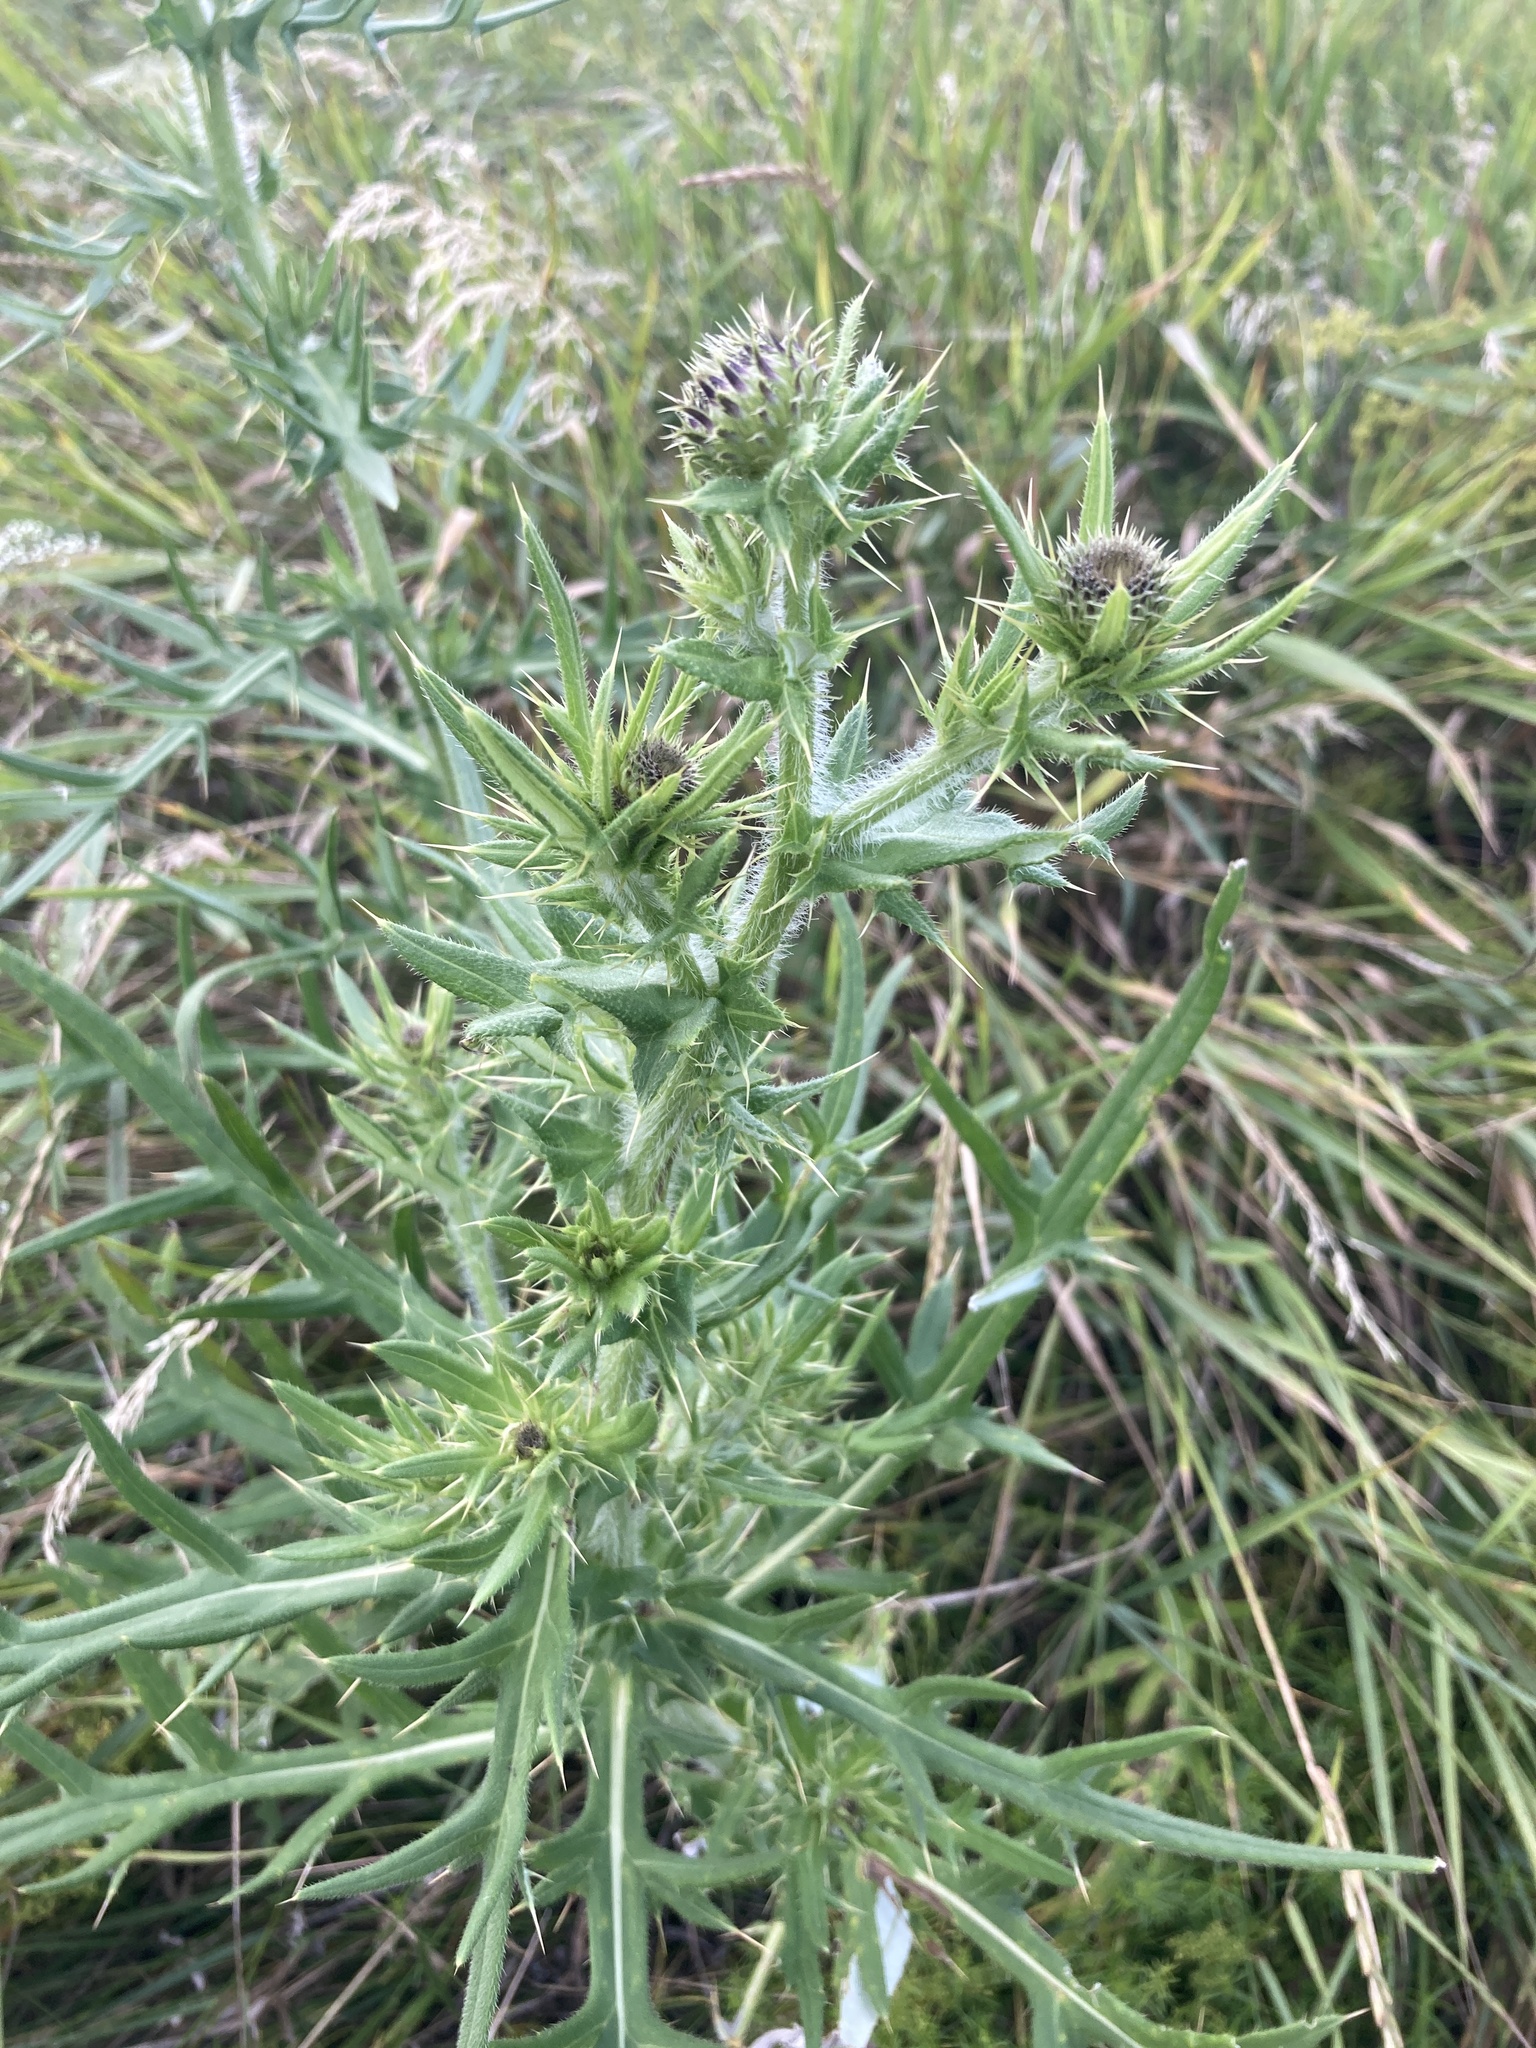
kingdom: Plantae
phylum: Tracheophyta
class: Magnoliopsida
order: Asterales
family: Asteraceae
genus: Cirsium
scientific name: Cirsium serrulatum
